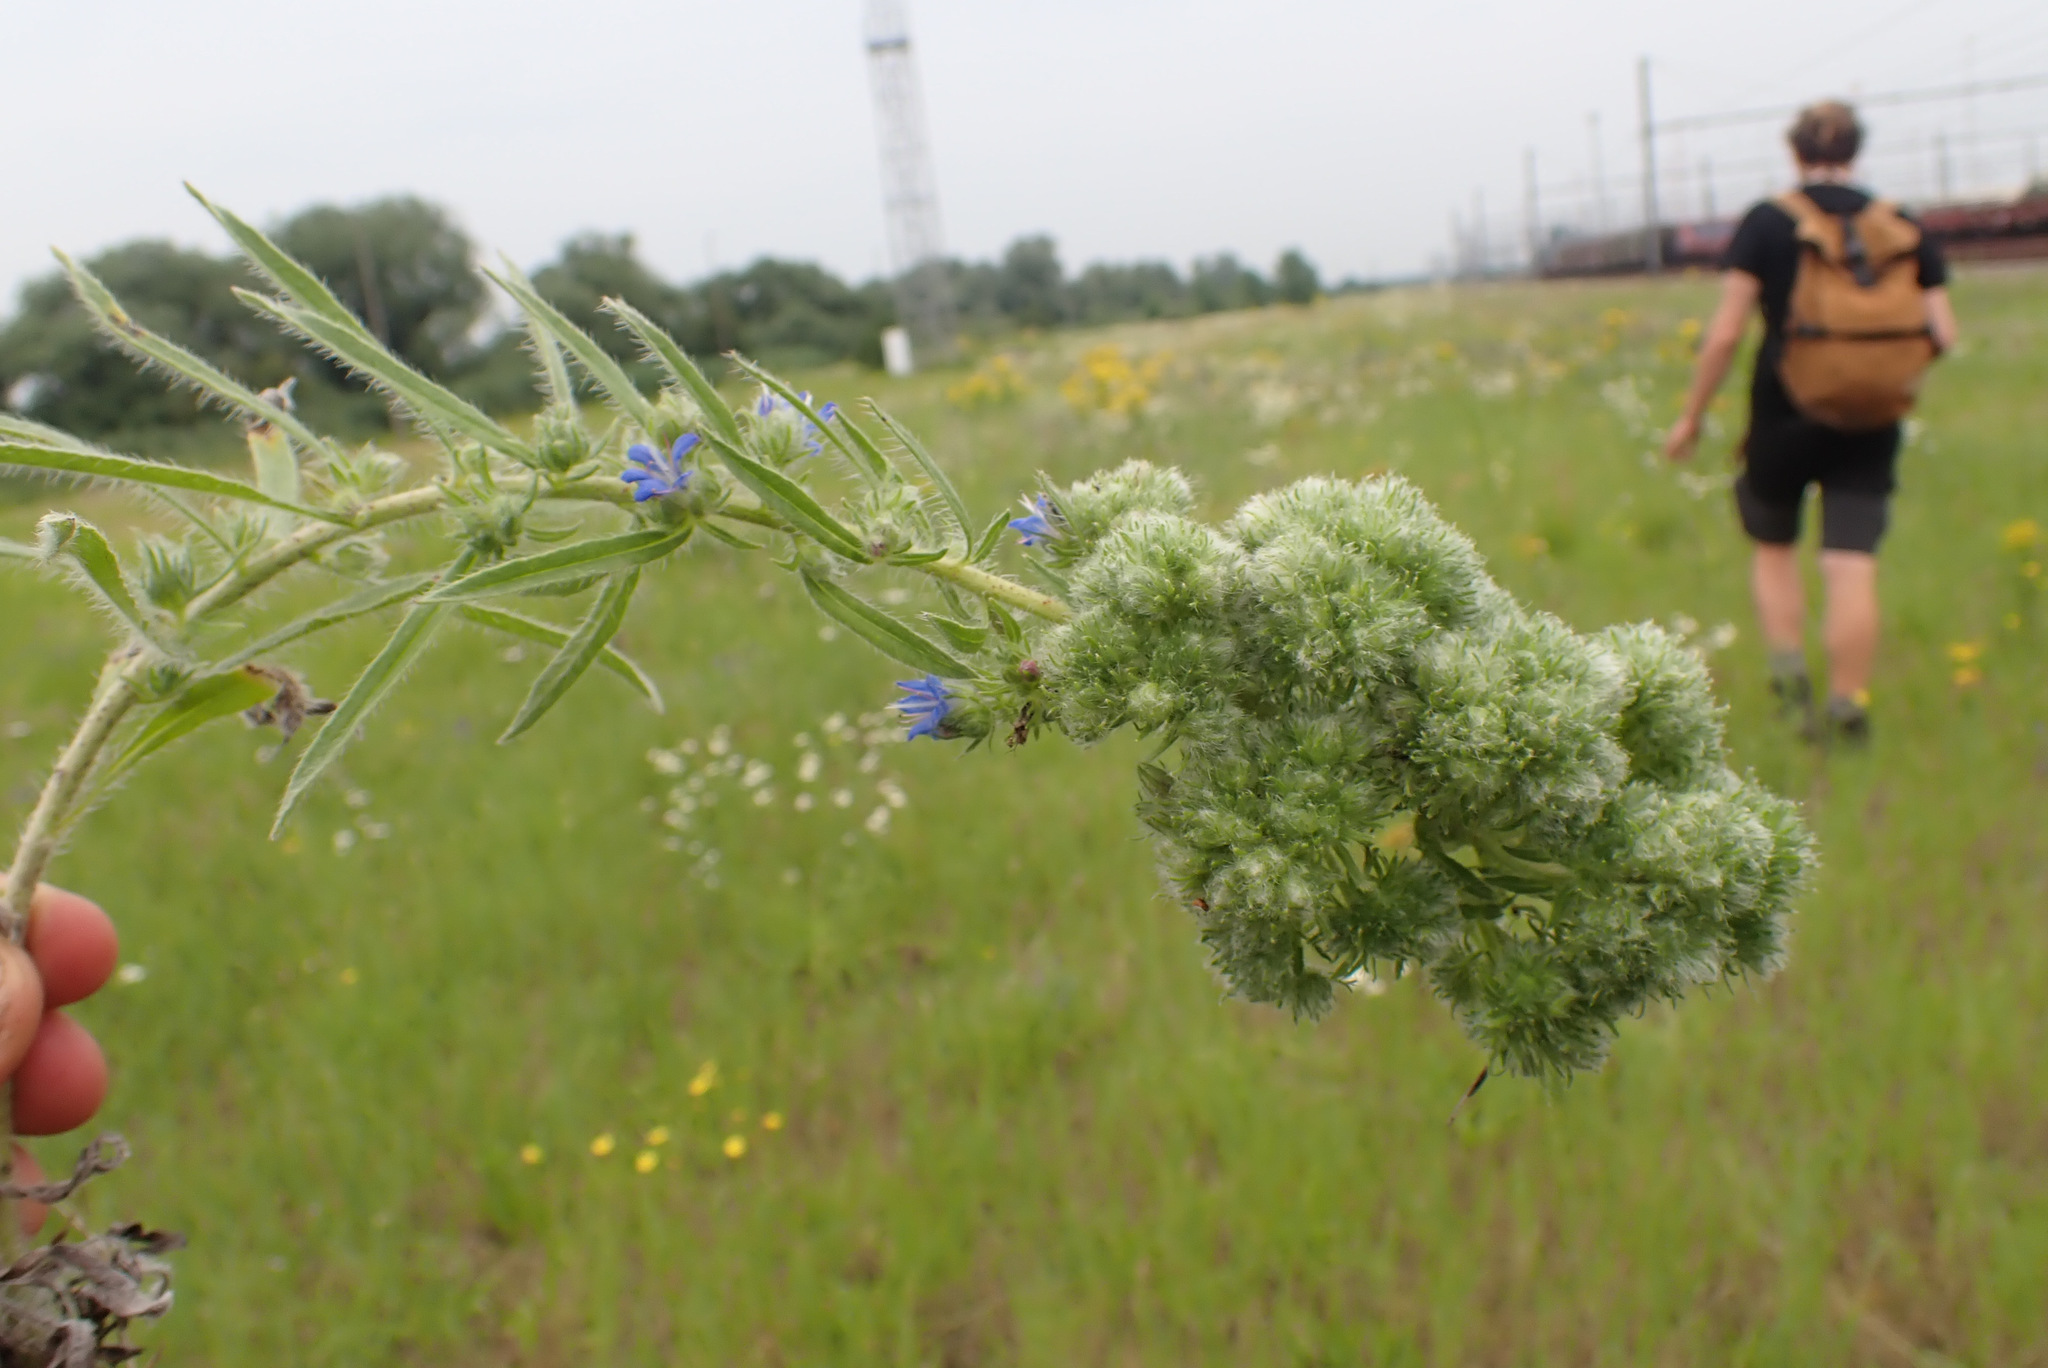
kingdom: Animalia
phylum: Arthropoda
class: Arachnida
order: Trombidiformes
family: Eriophyidae
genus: Aceria
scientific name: Aceria echii
